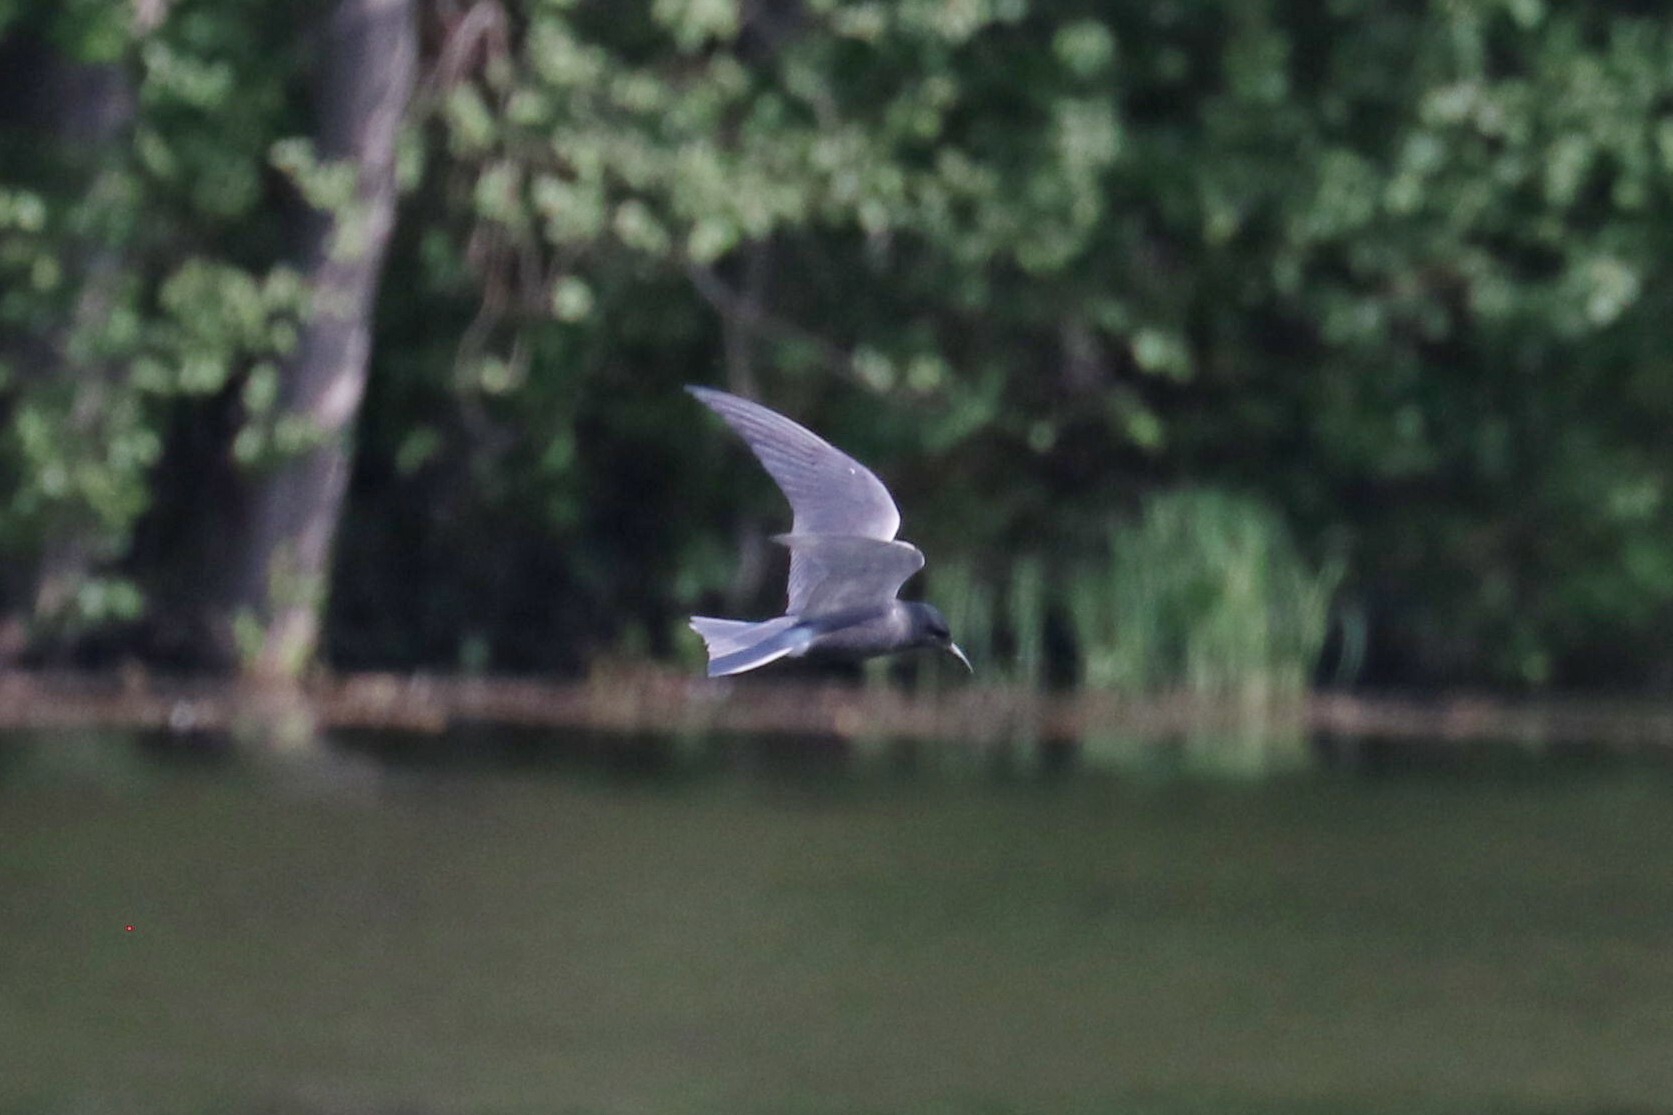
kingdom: Animalia
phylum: Chordata
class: Aves
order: Charadriiformes
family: Laridae
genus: Chlidonias
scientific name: Chlidonias niger
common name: Black tern
